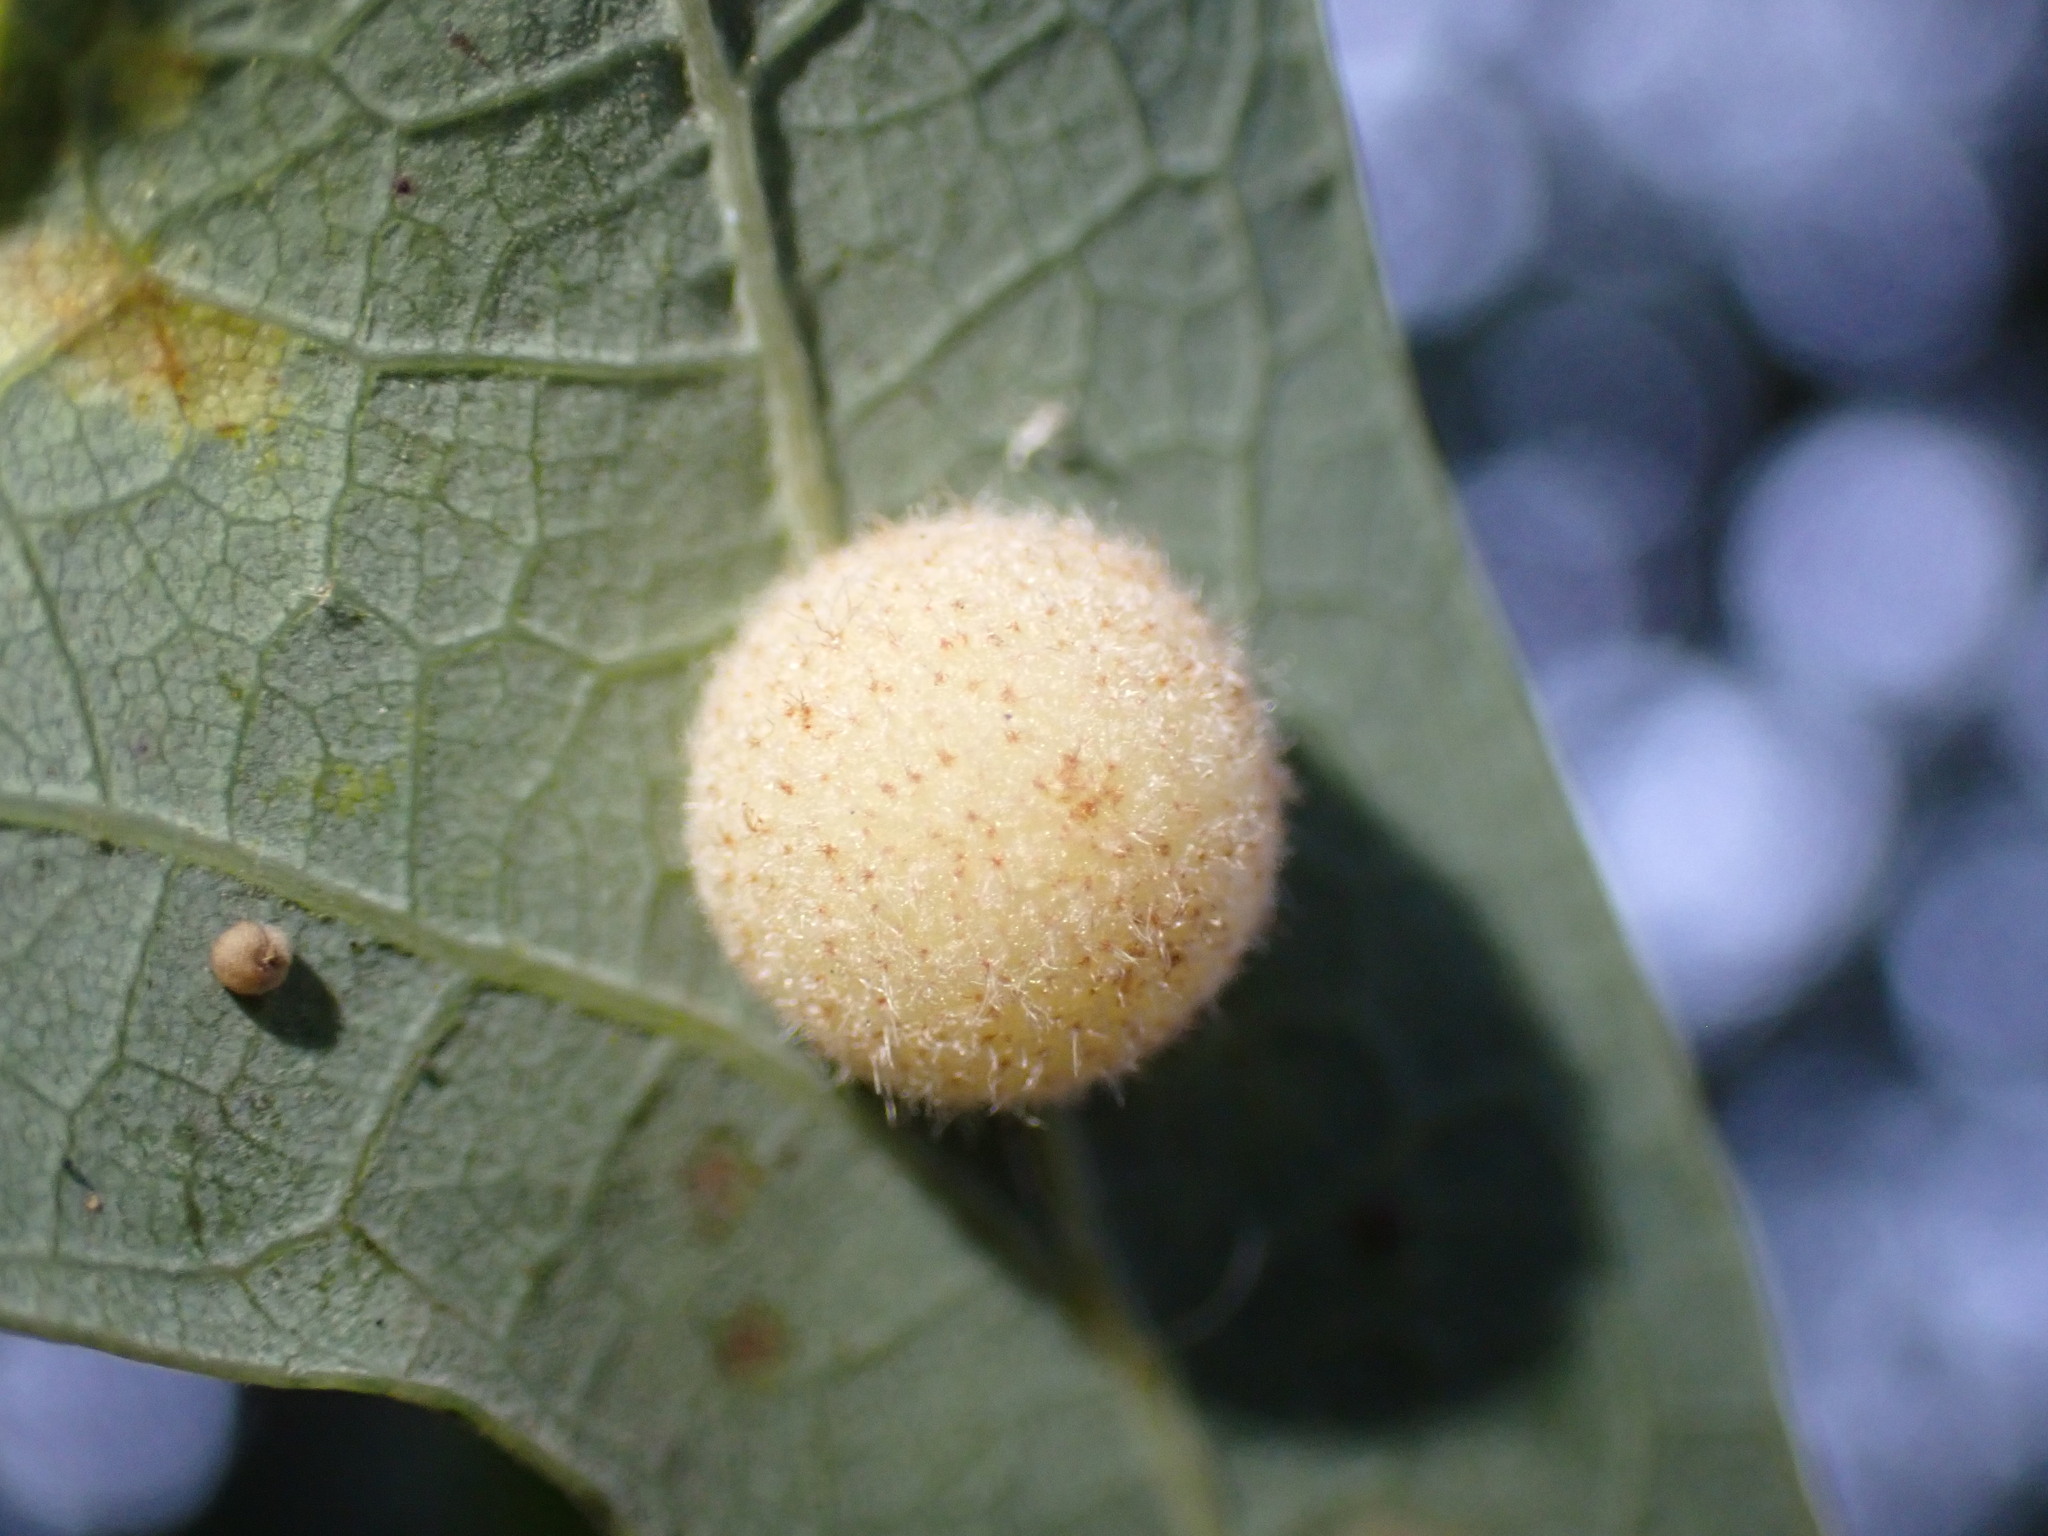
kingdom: Animalia
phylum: Arthropoda
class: Insecta
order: Hymenoptera
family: Cynipidae
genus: Philonix
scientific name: Philonix fulvicollis
